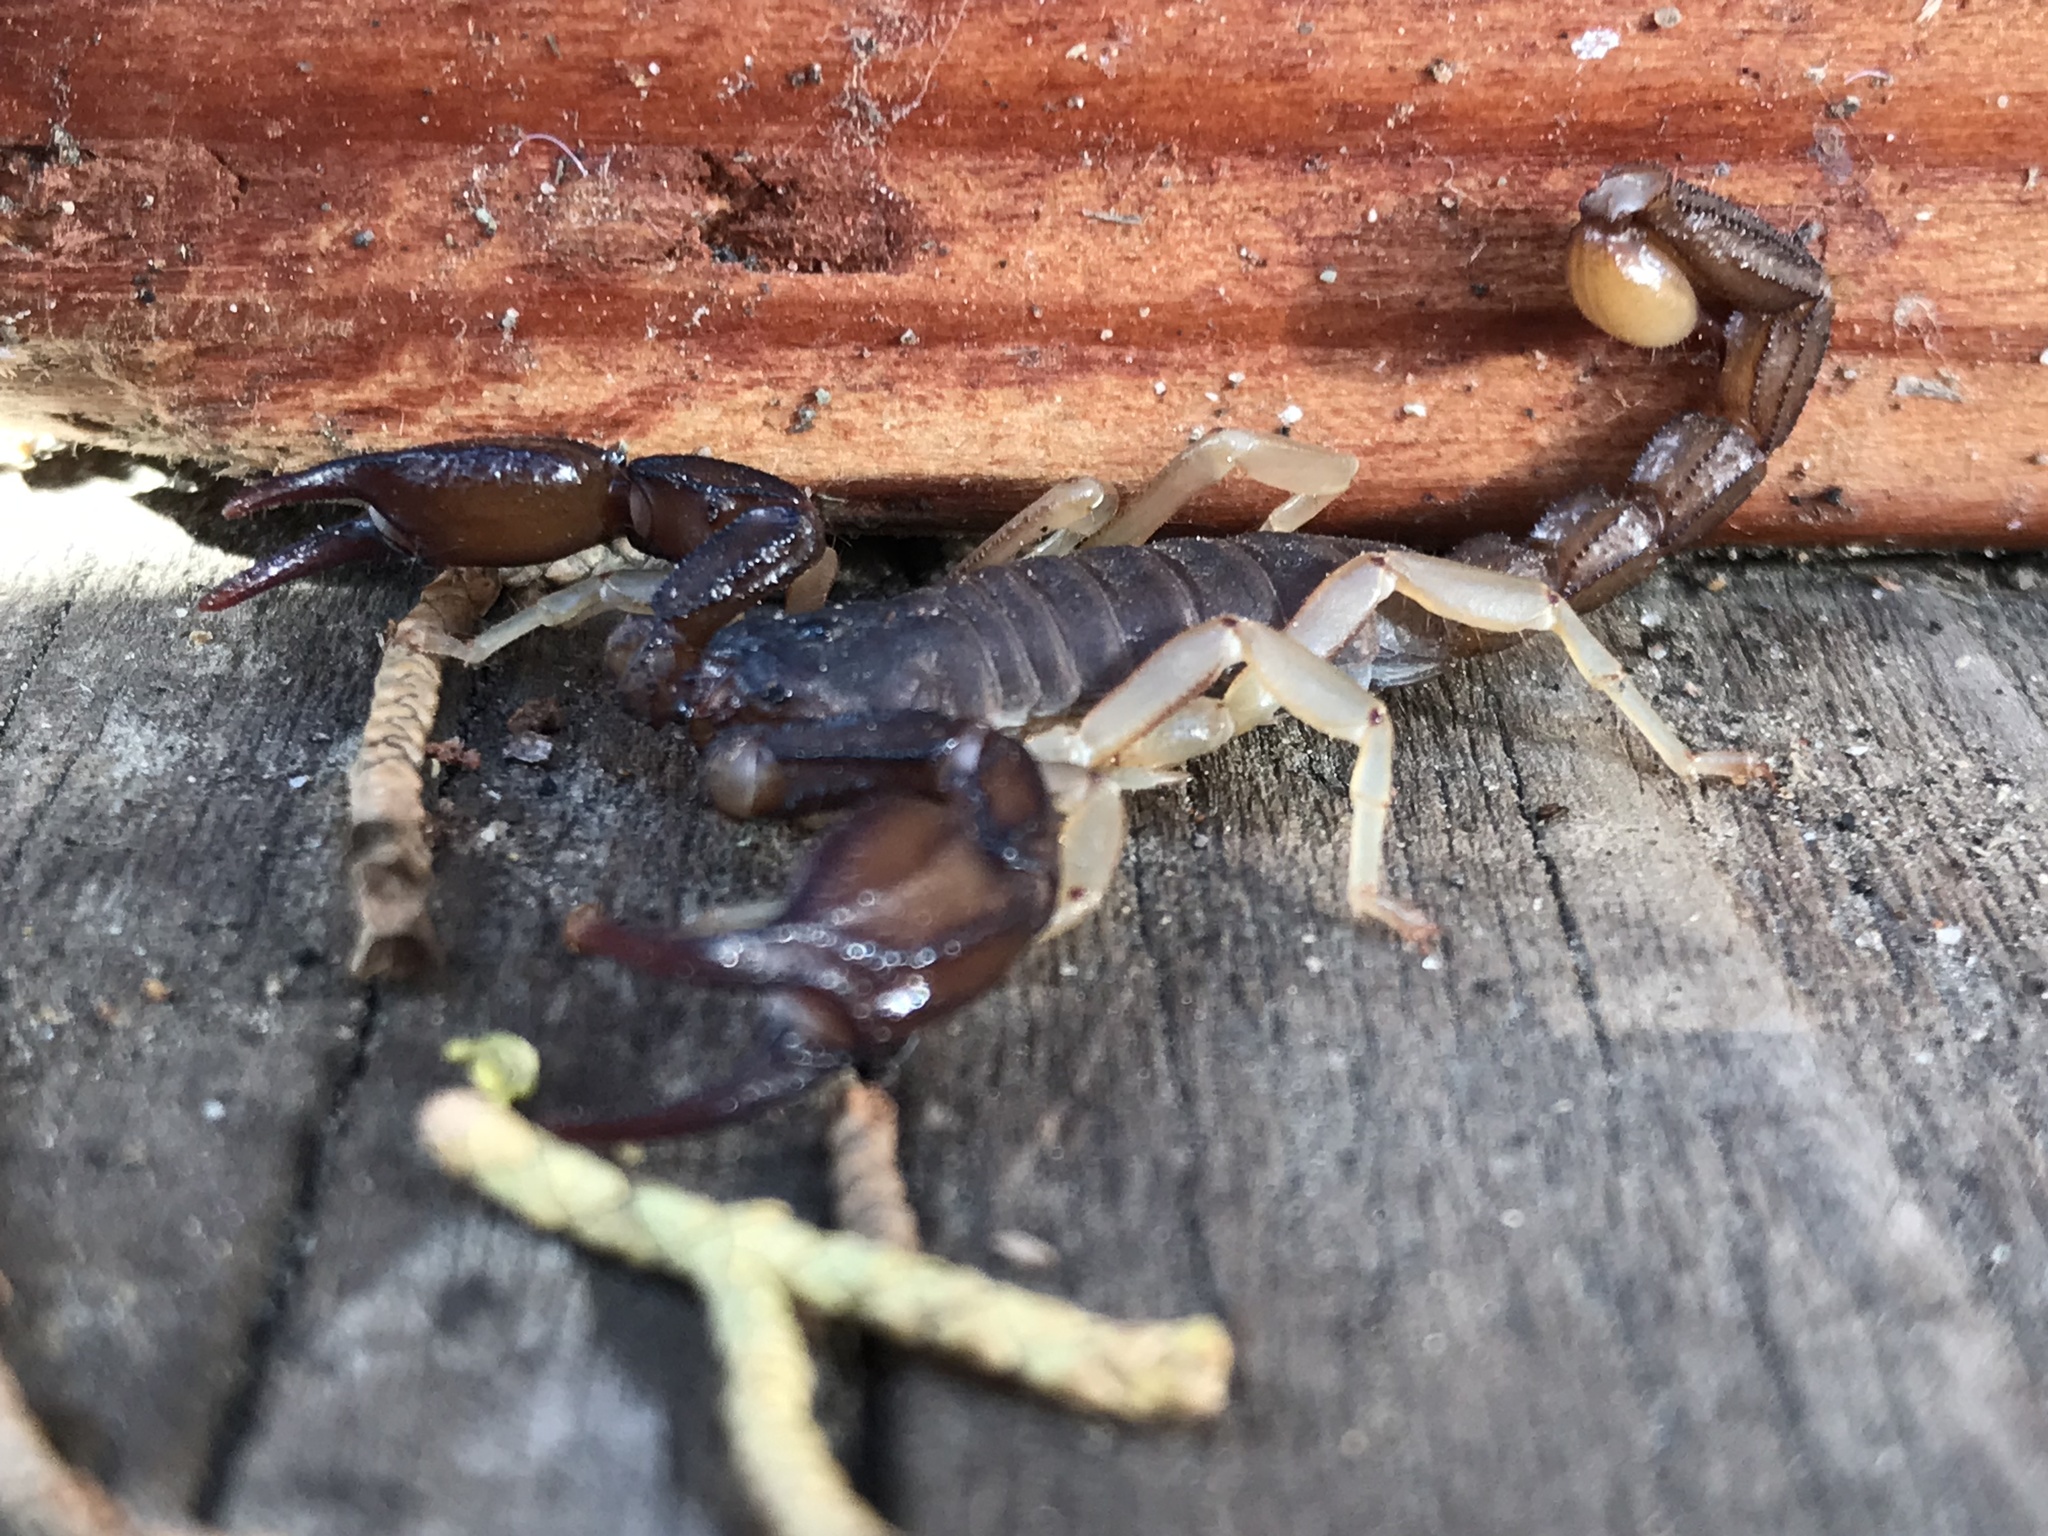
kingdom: Animalia
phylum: Arthropoda
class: Arachnida
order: Scorpiones
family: Chactidae
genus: Uroctonus
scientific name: Uroctonus mordax
